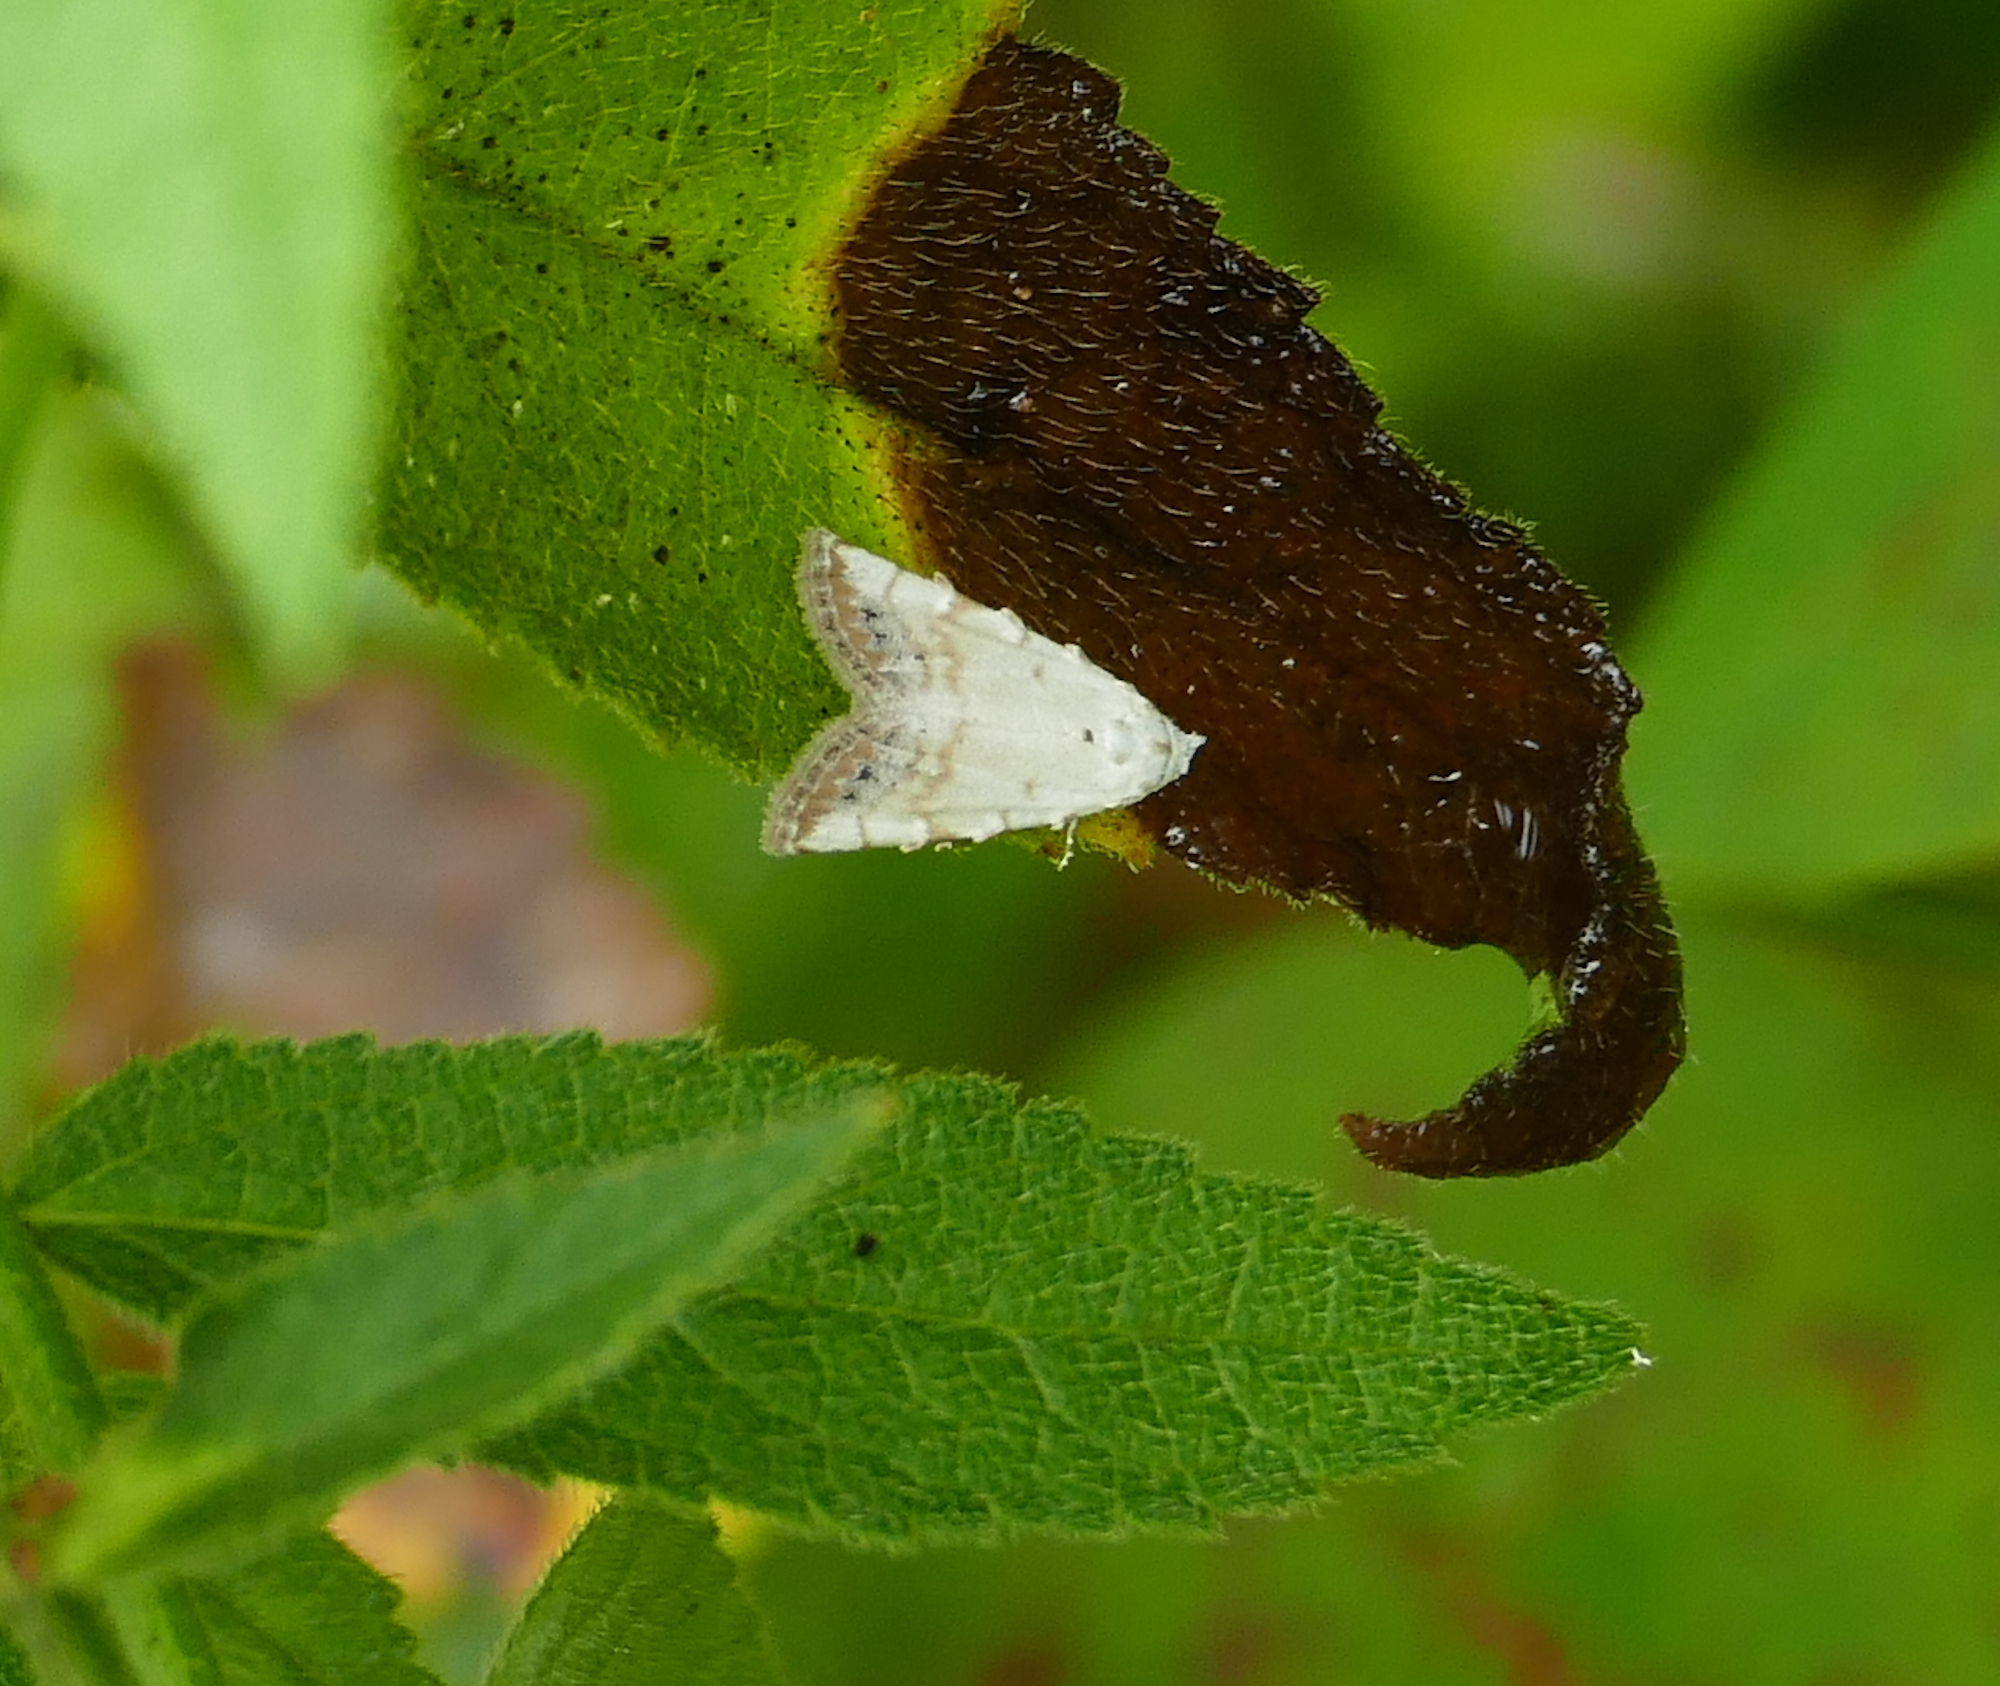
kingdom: Animalia
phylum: Arthropoda
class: Insecta
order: Lepidoptera
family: Nolidae
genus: Nola
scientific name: Nola cereella
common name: Sorghum webworm moth
